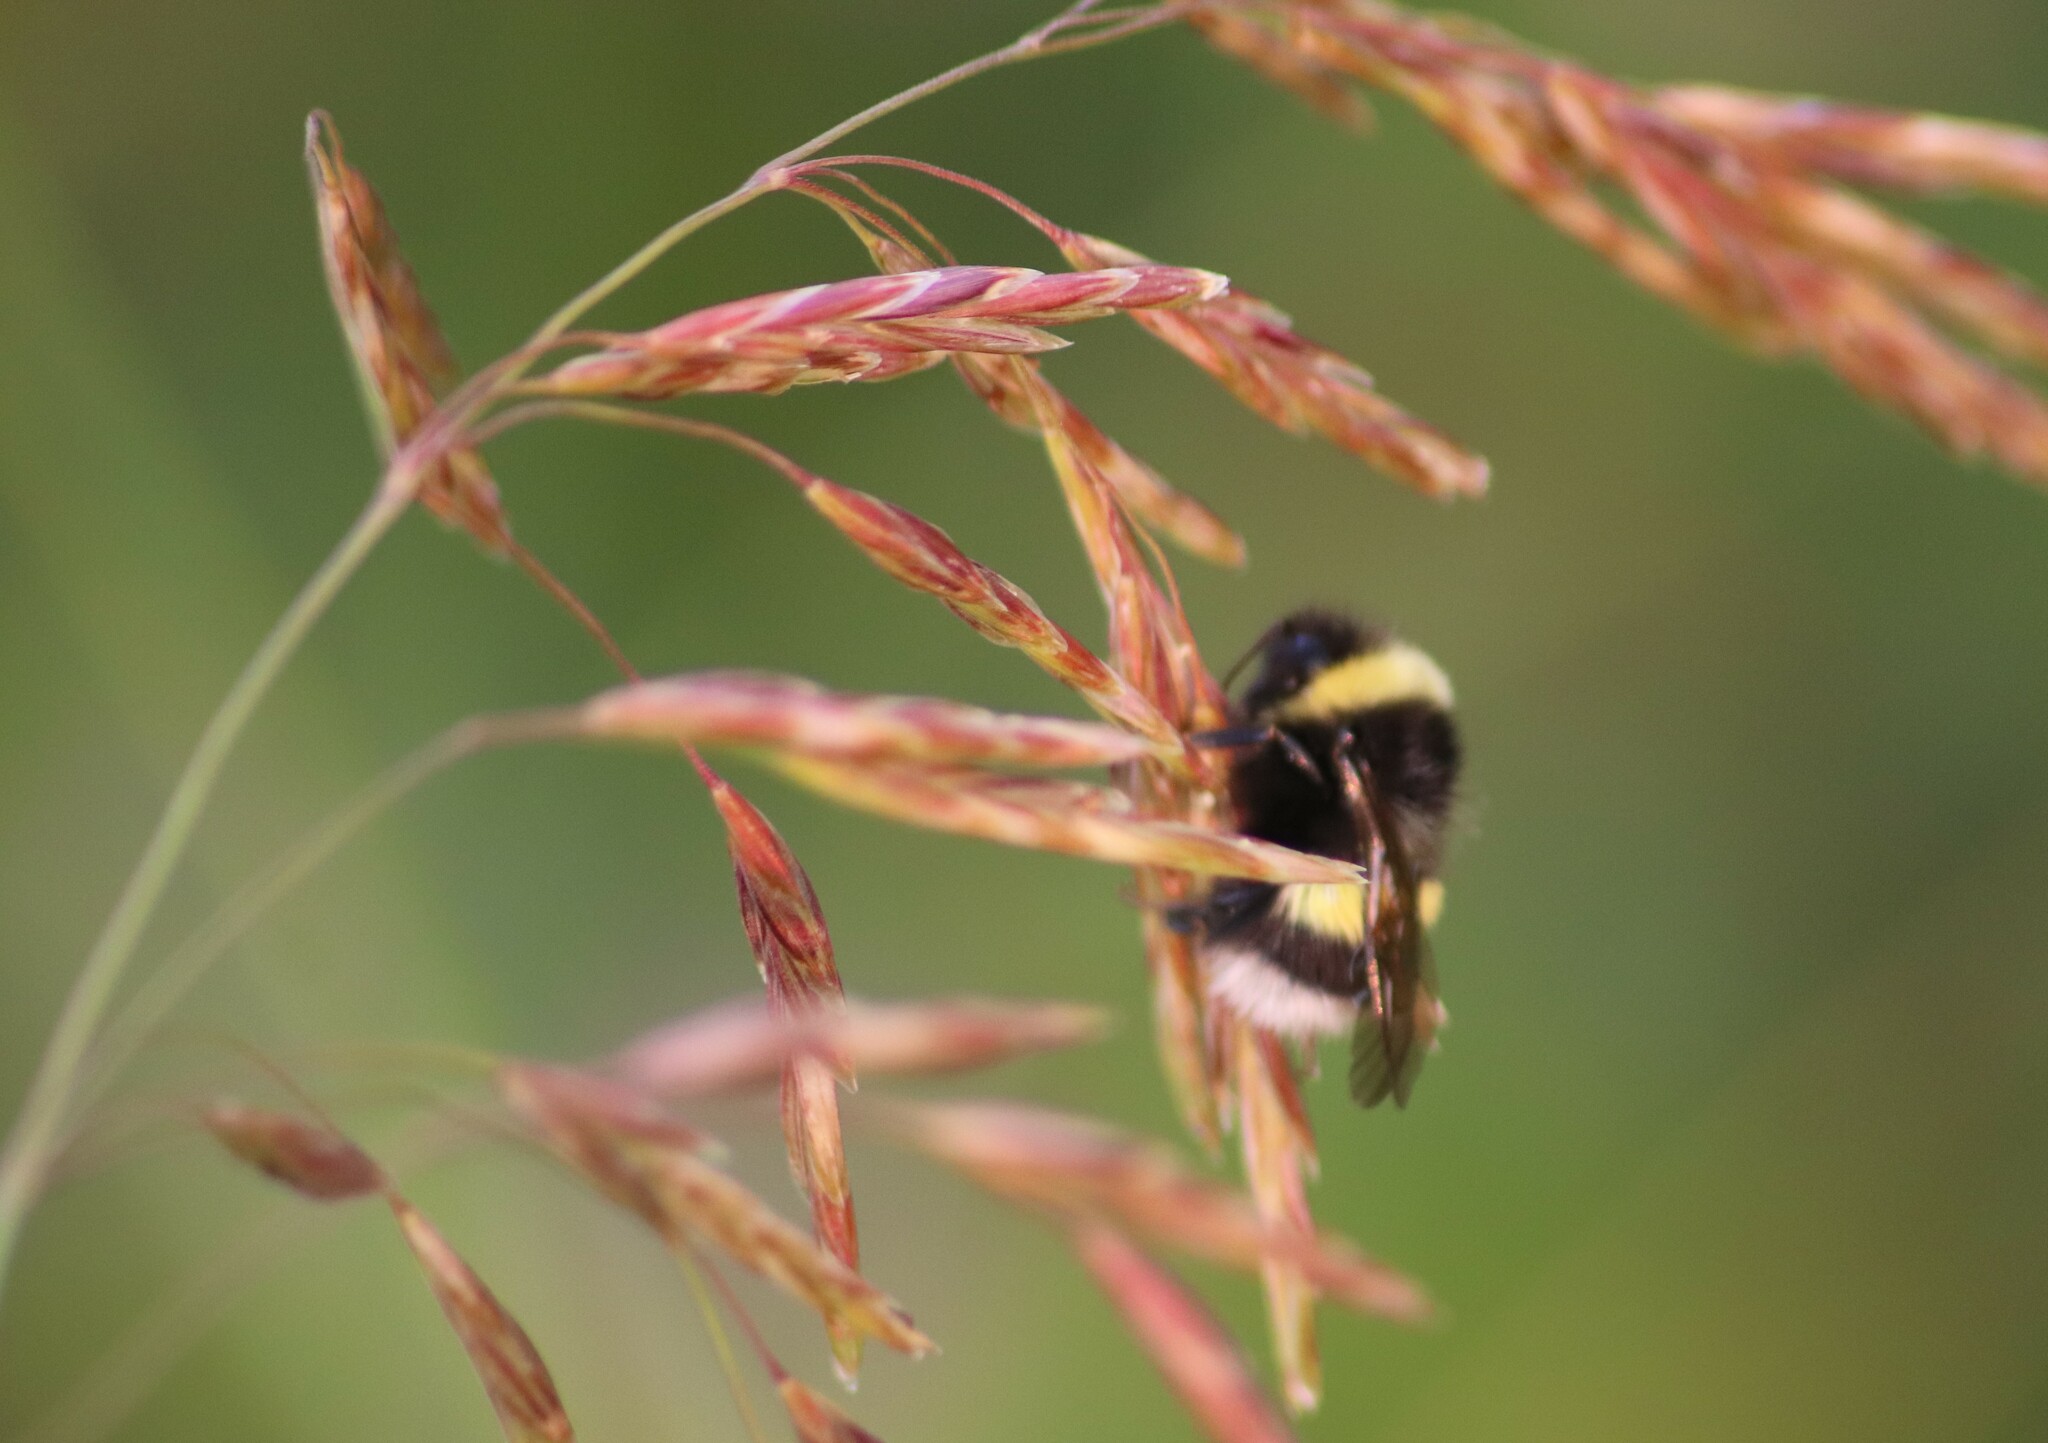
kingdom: Animalia
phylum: Arthropoda
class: Insecta
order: Hymenoptera
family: Apidae
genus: Bombus
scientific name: Bombus cryptarum
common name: Cryptic bumblebee
